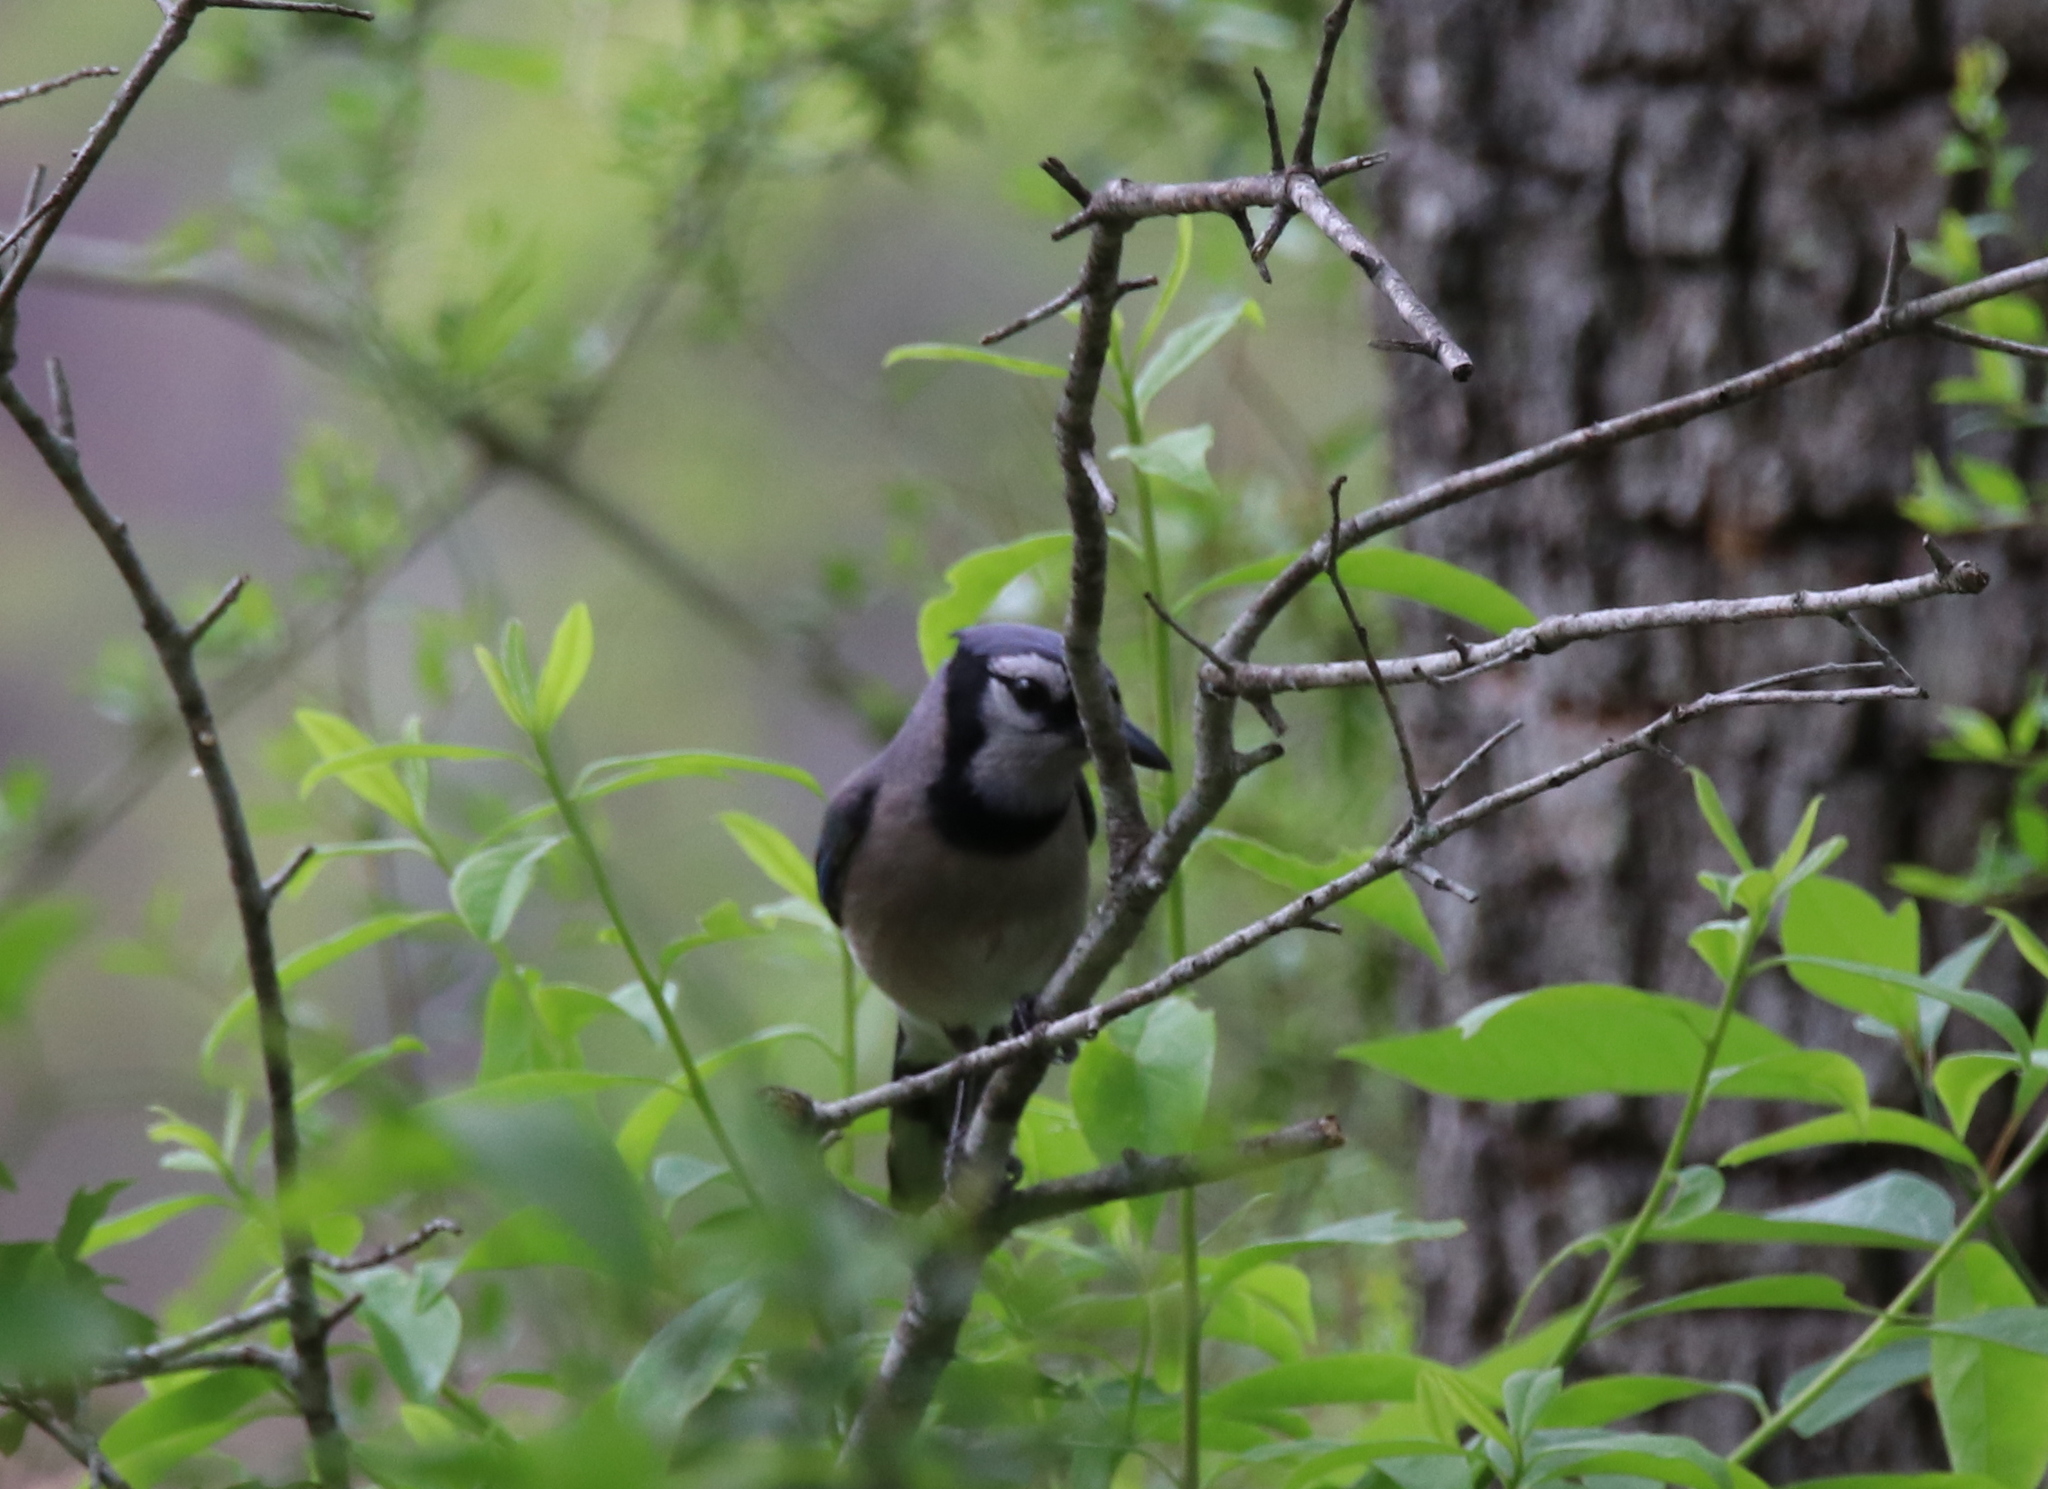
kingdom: Animalia
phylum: Chordata
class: Aves
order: Passeriformes
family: Corvidae
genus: Cyanocitta
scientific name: Cyanocitta cristata
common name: Blue jay
